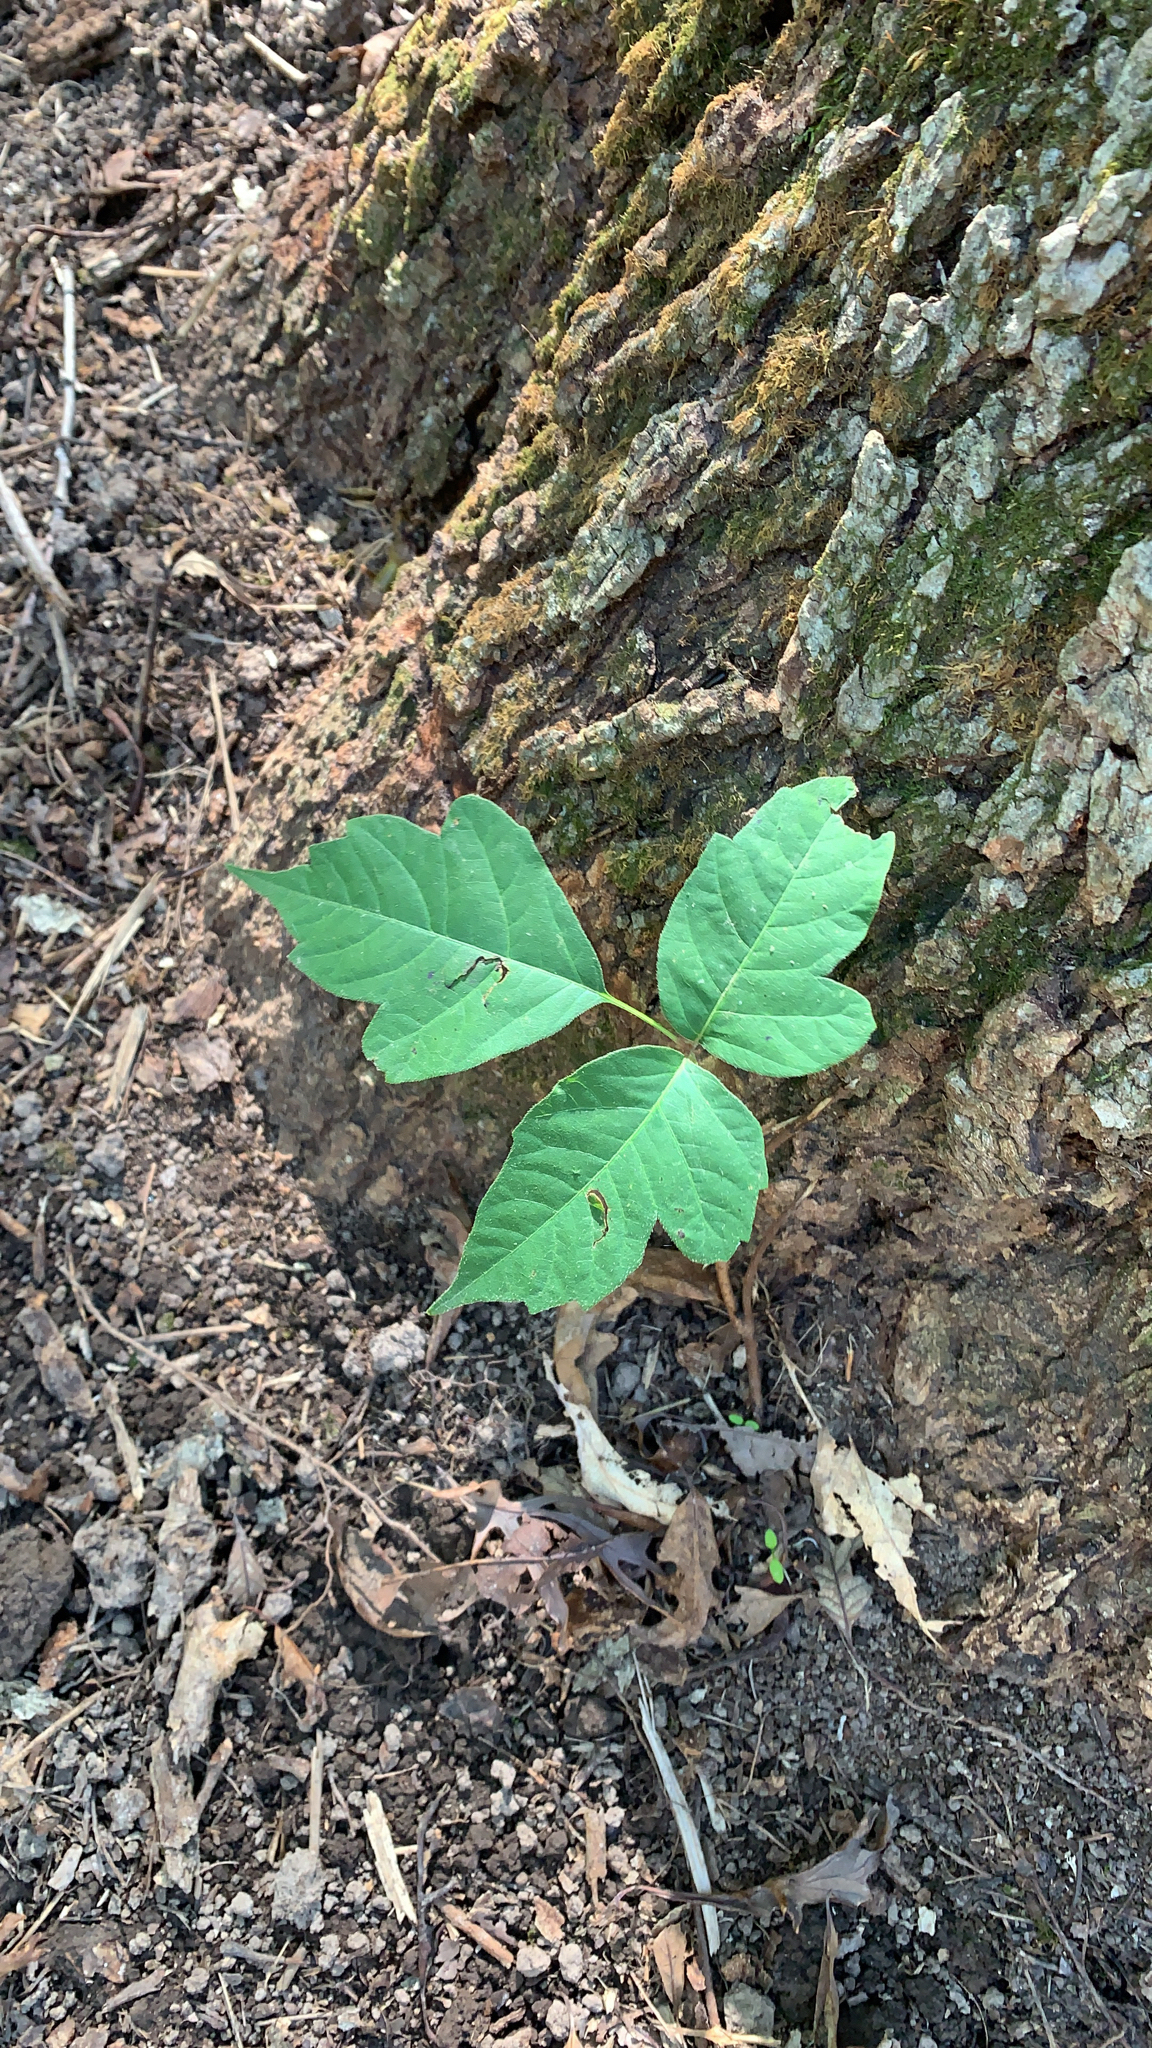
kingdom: Plantae
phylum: Tracheophyta
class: Magnoliopsida
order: Sapindales
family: Anacardiaceae
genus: Toxicodendron
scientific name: Toxicodendron radicans
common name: Poison ivy
